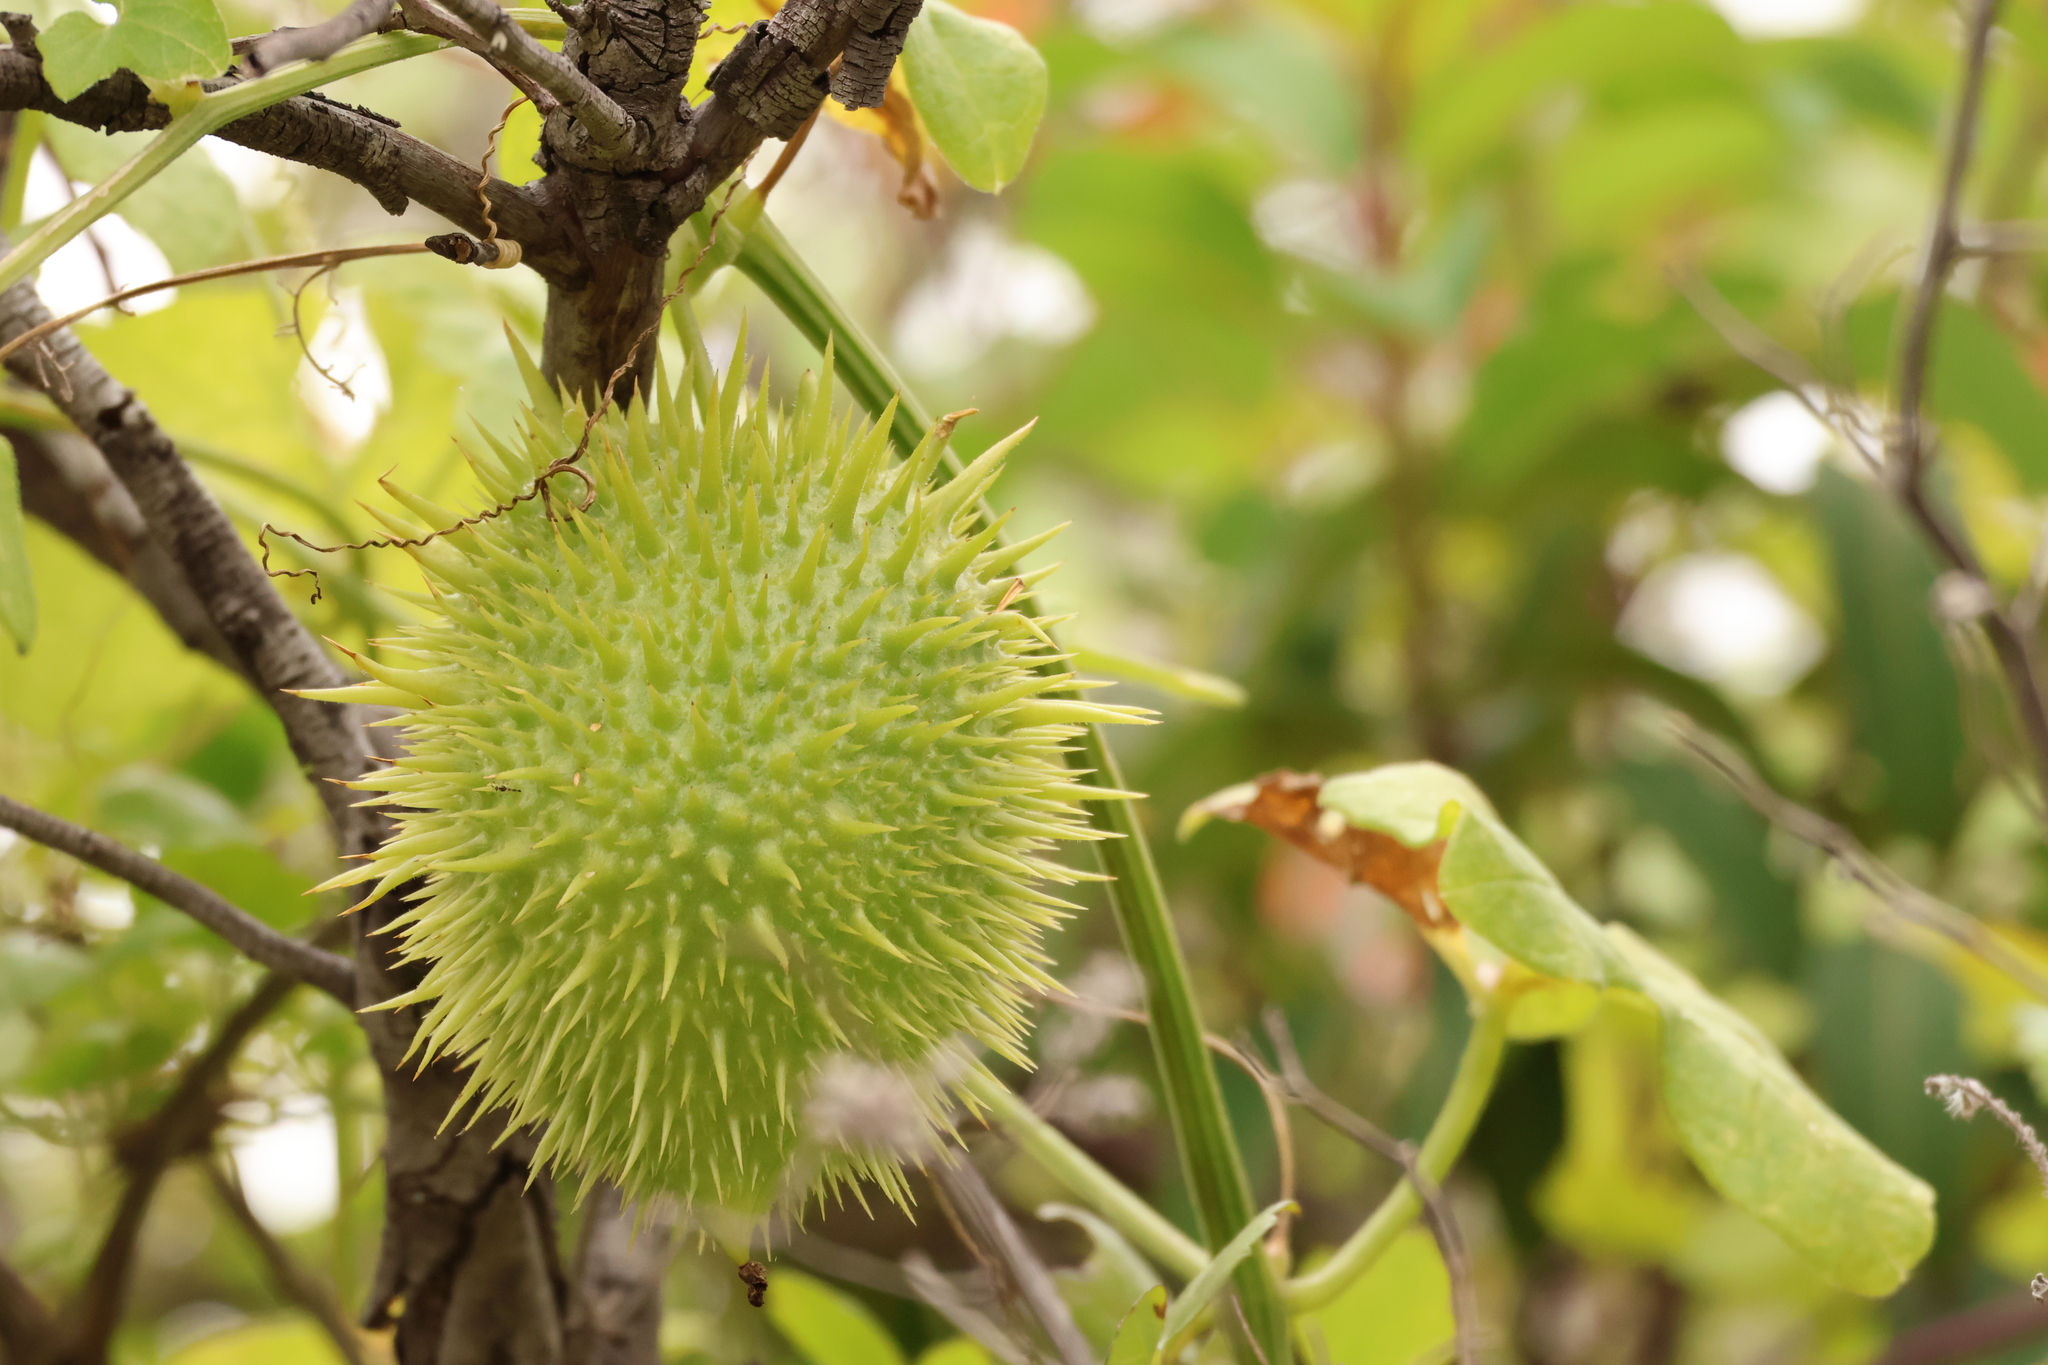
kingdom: Plantae
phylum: Tracheophyta
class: Magnoliopsida
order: Cucurbitales
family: Cucurbitaceae
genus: Marah
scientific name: Marah macrocarpa
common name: Cucamonga manroot
